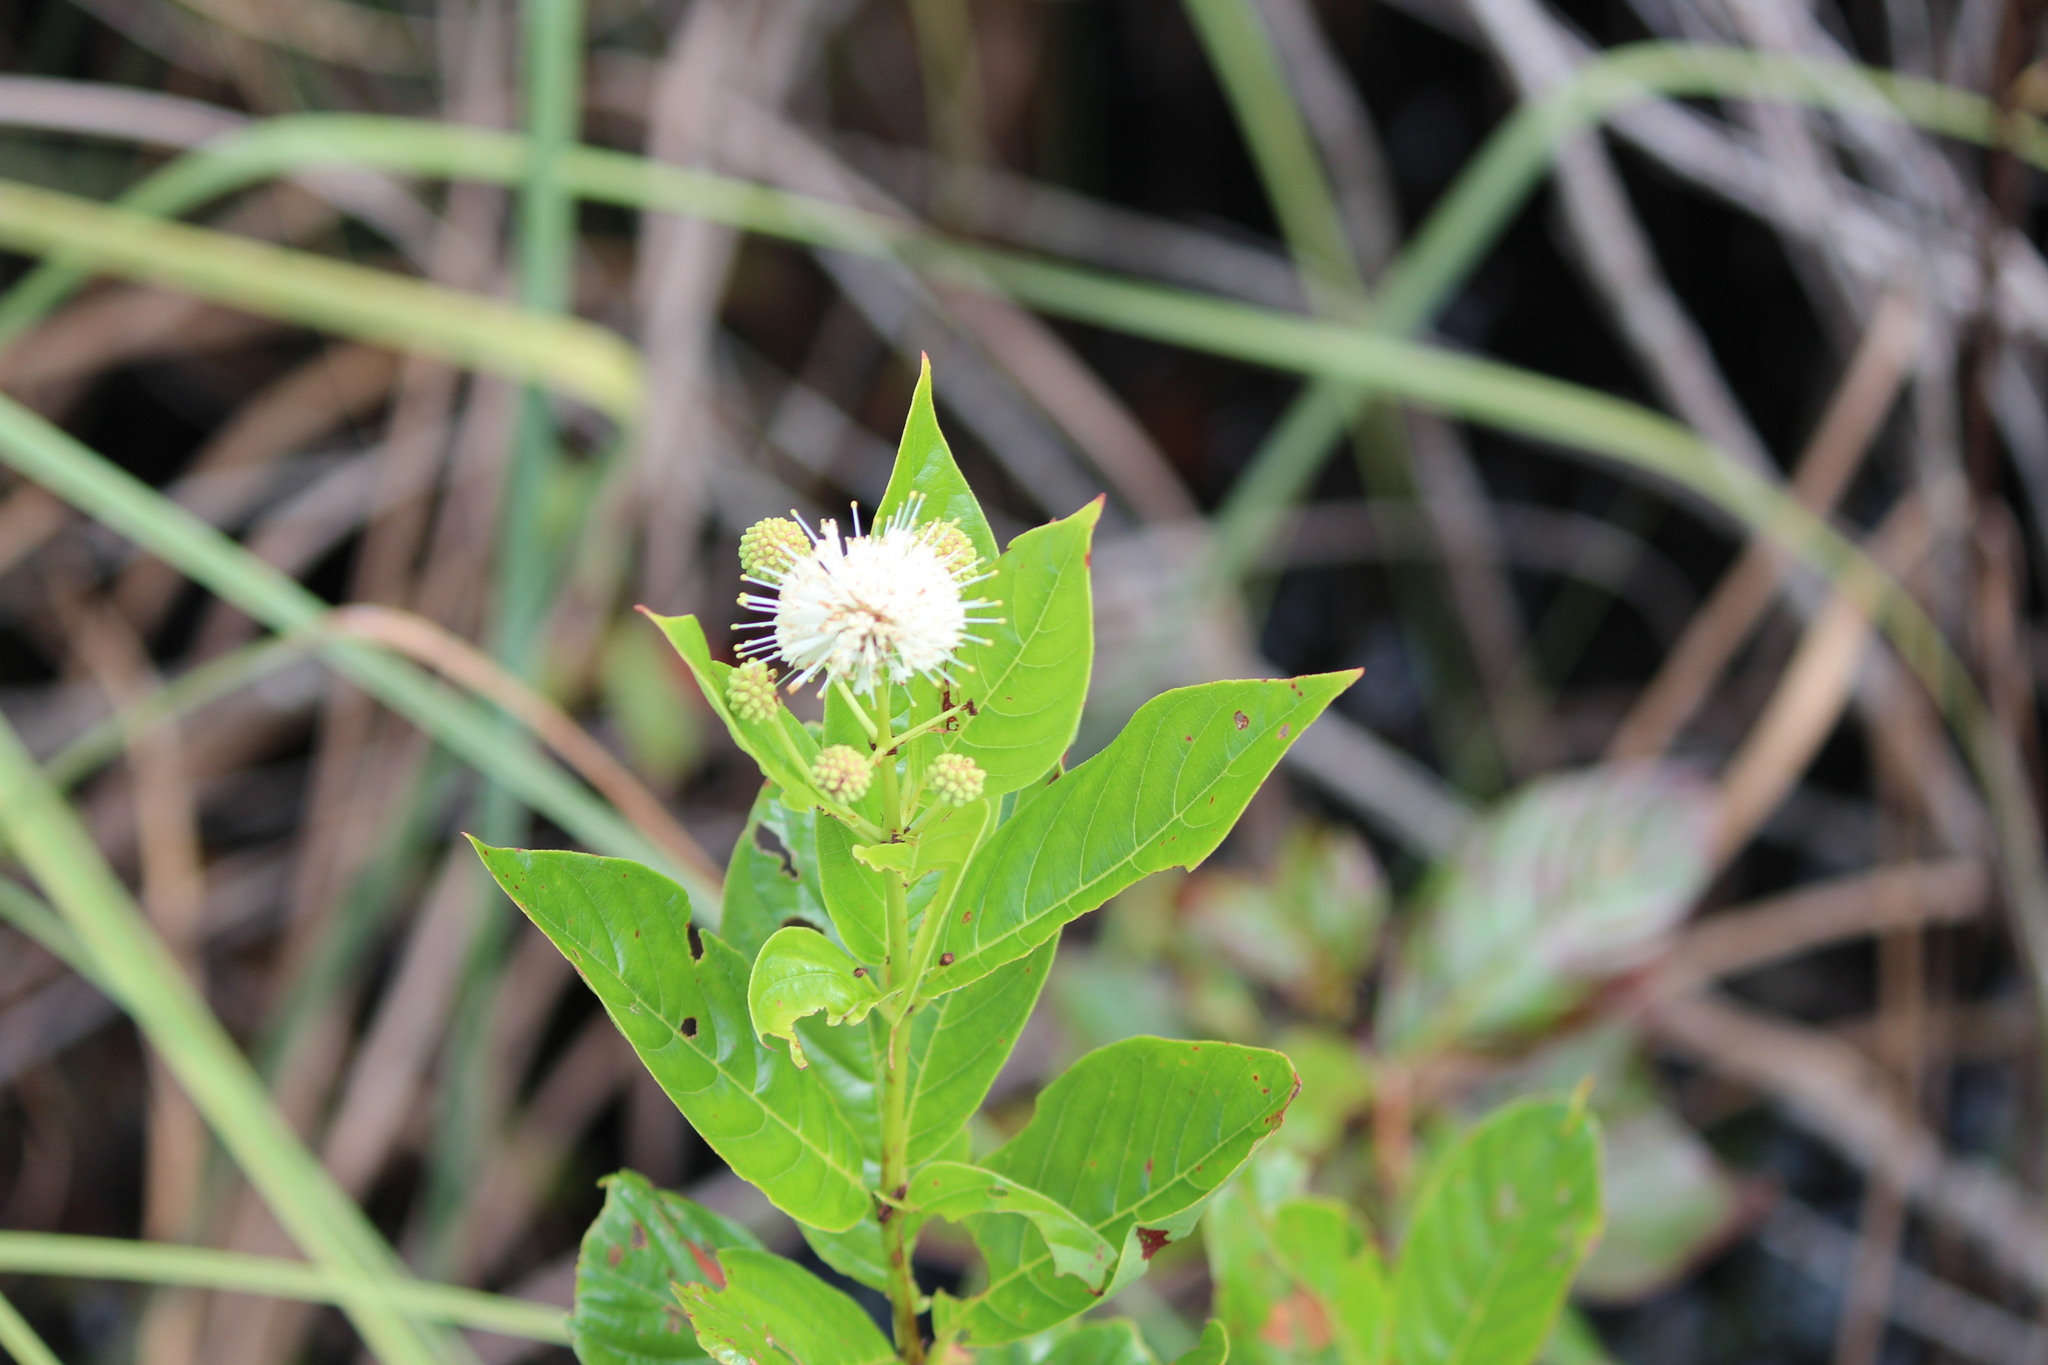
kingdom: Plantae
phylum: Tracheophyta
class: Magnoliopsida
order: Gentianales
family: Rubiaceae
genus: Cephalanthus
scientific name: Cephalanthus occidentalis
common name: Button-willow
